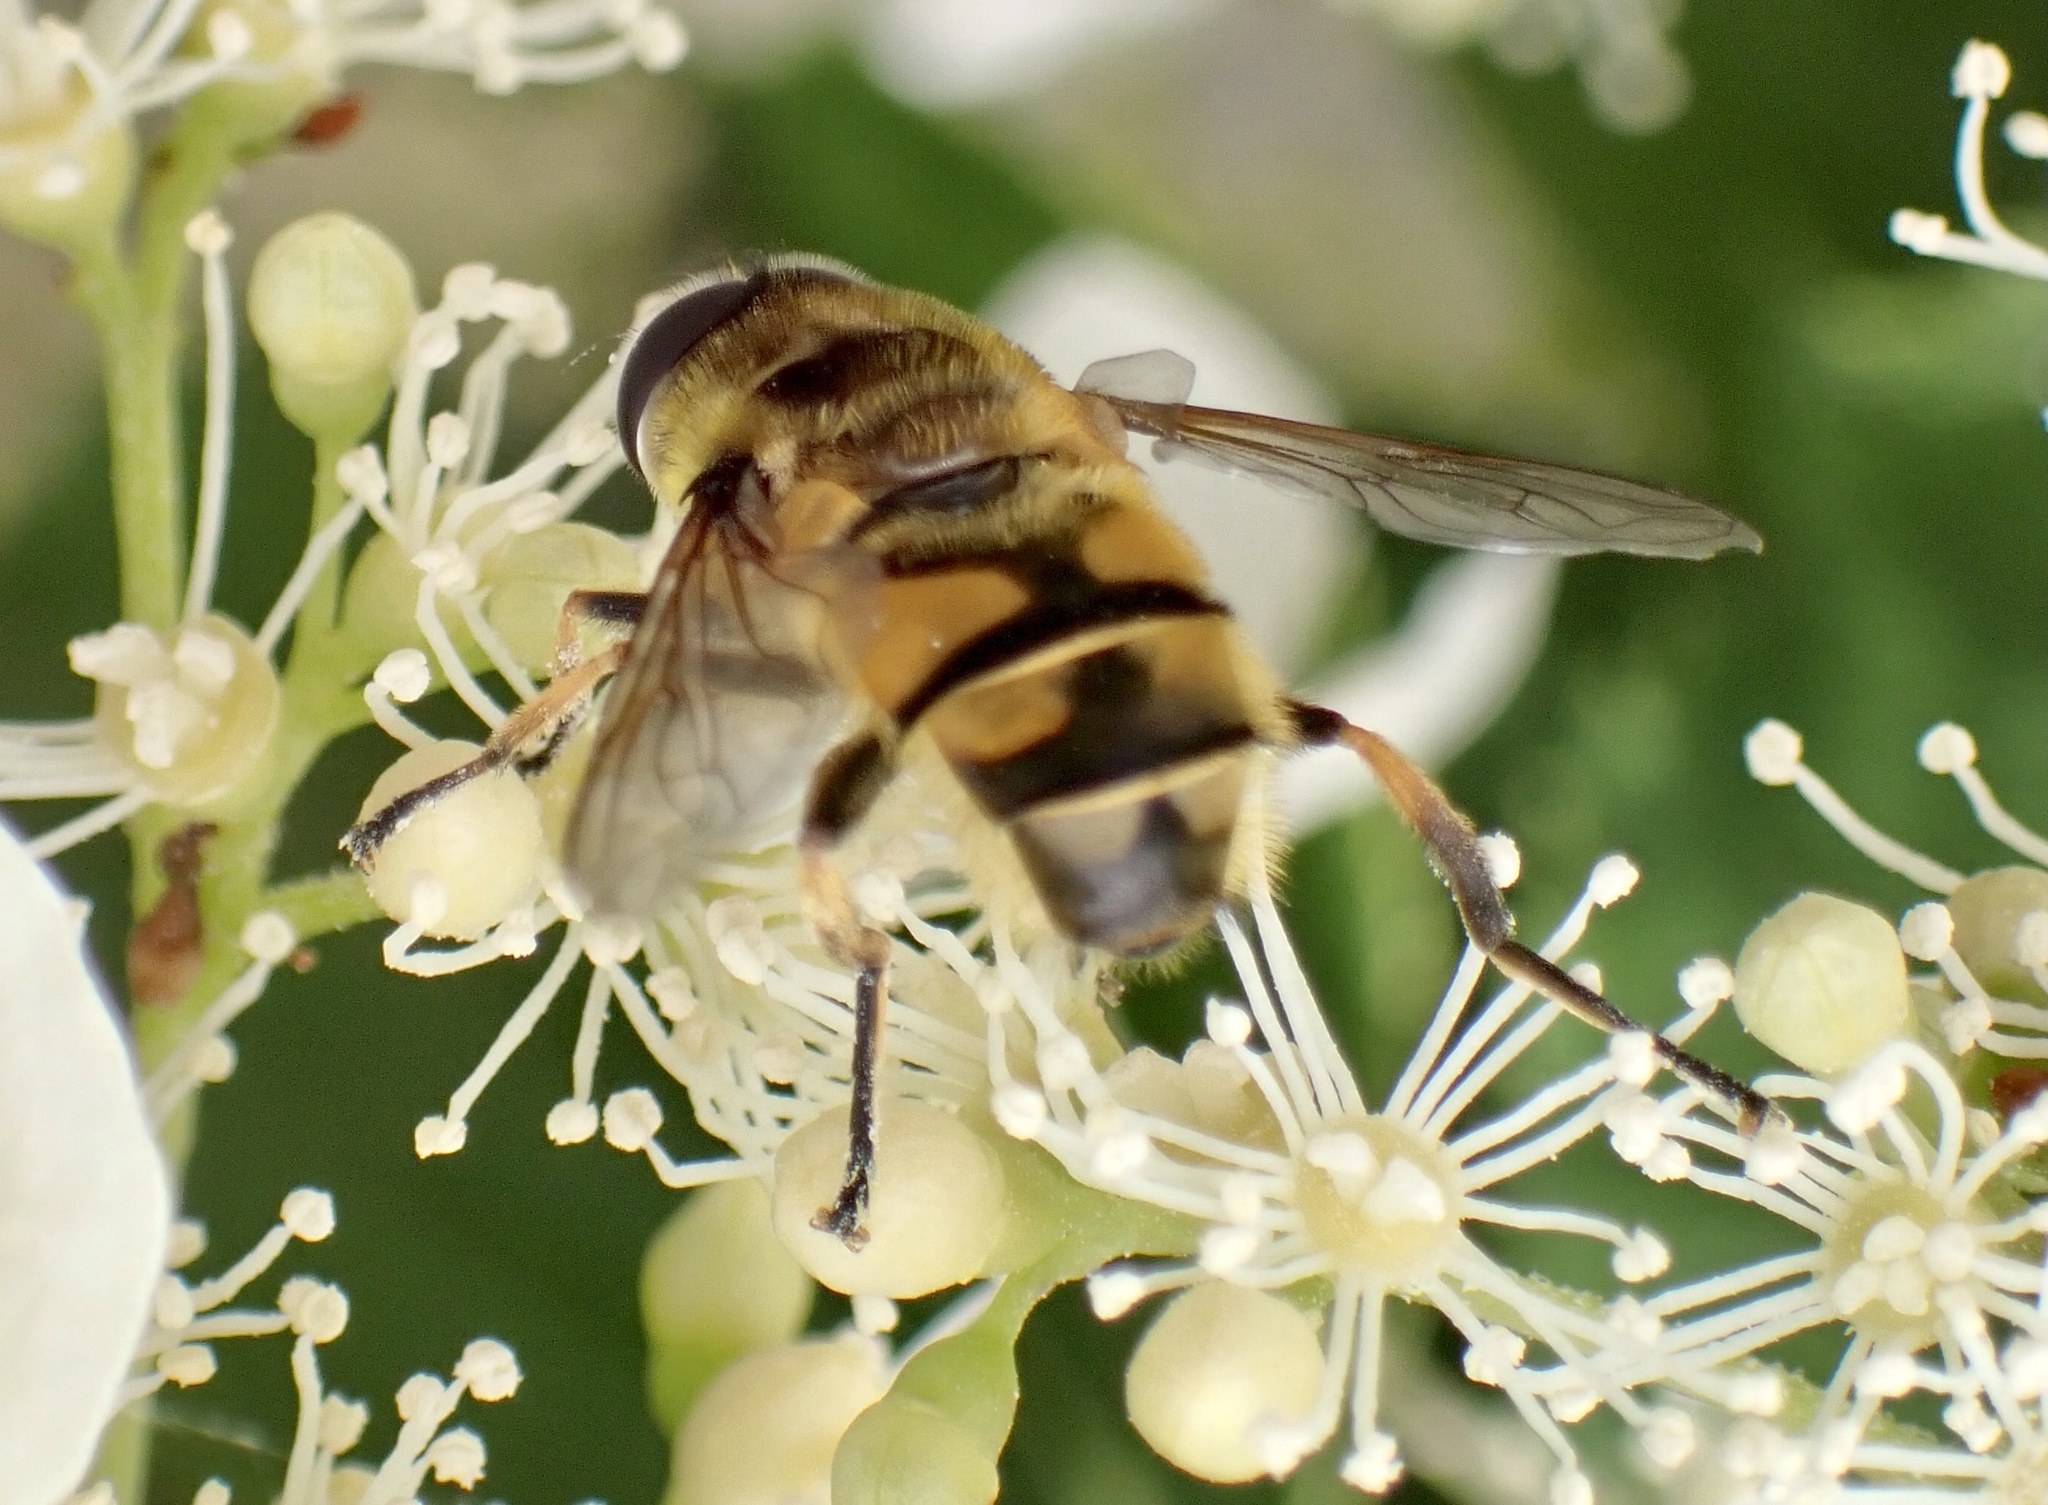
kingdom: Animalia
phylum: Arthropoda
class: Insecta
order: Diptera
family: Syrphidae
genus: Myathropa
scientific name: Myathropa florea
